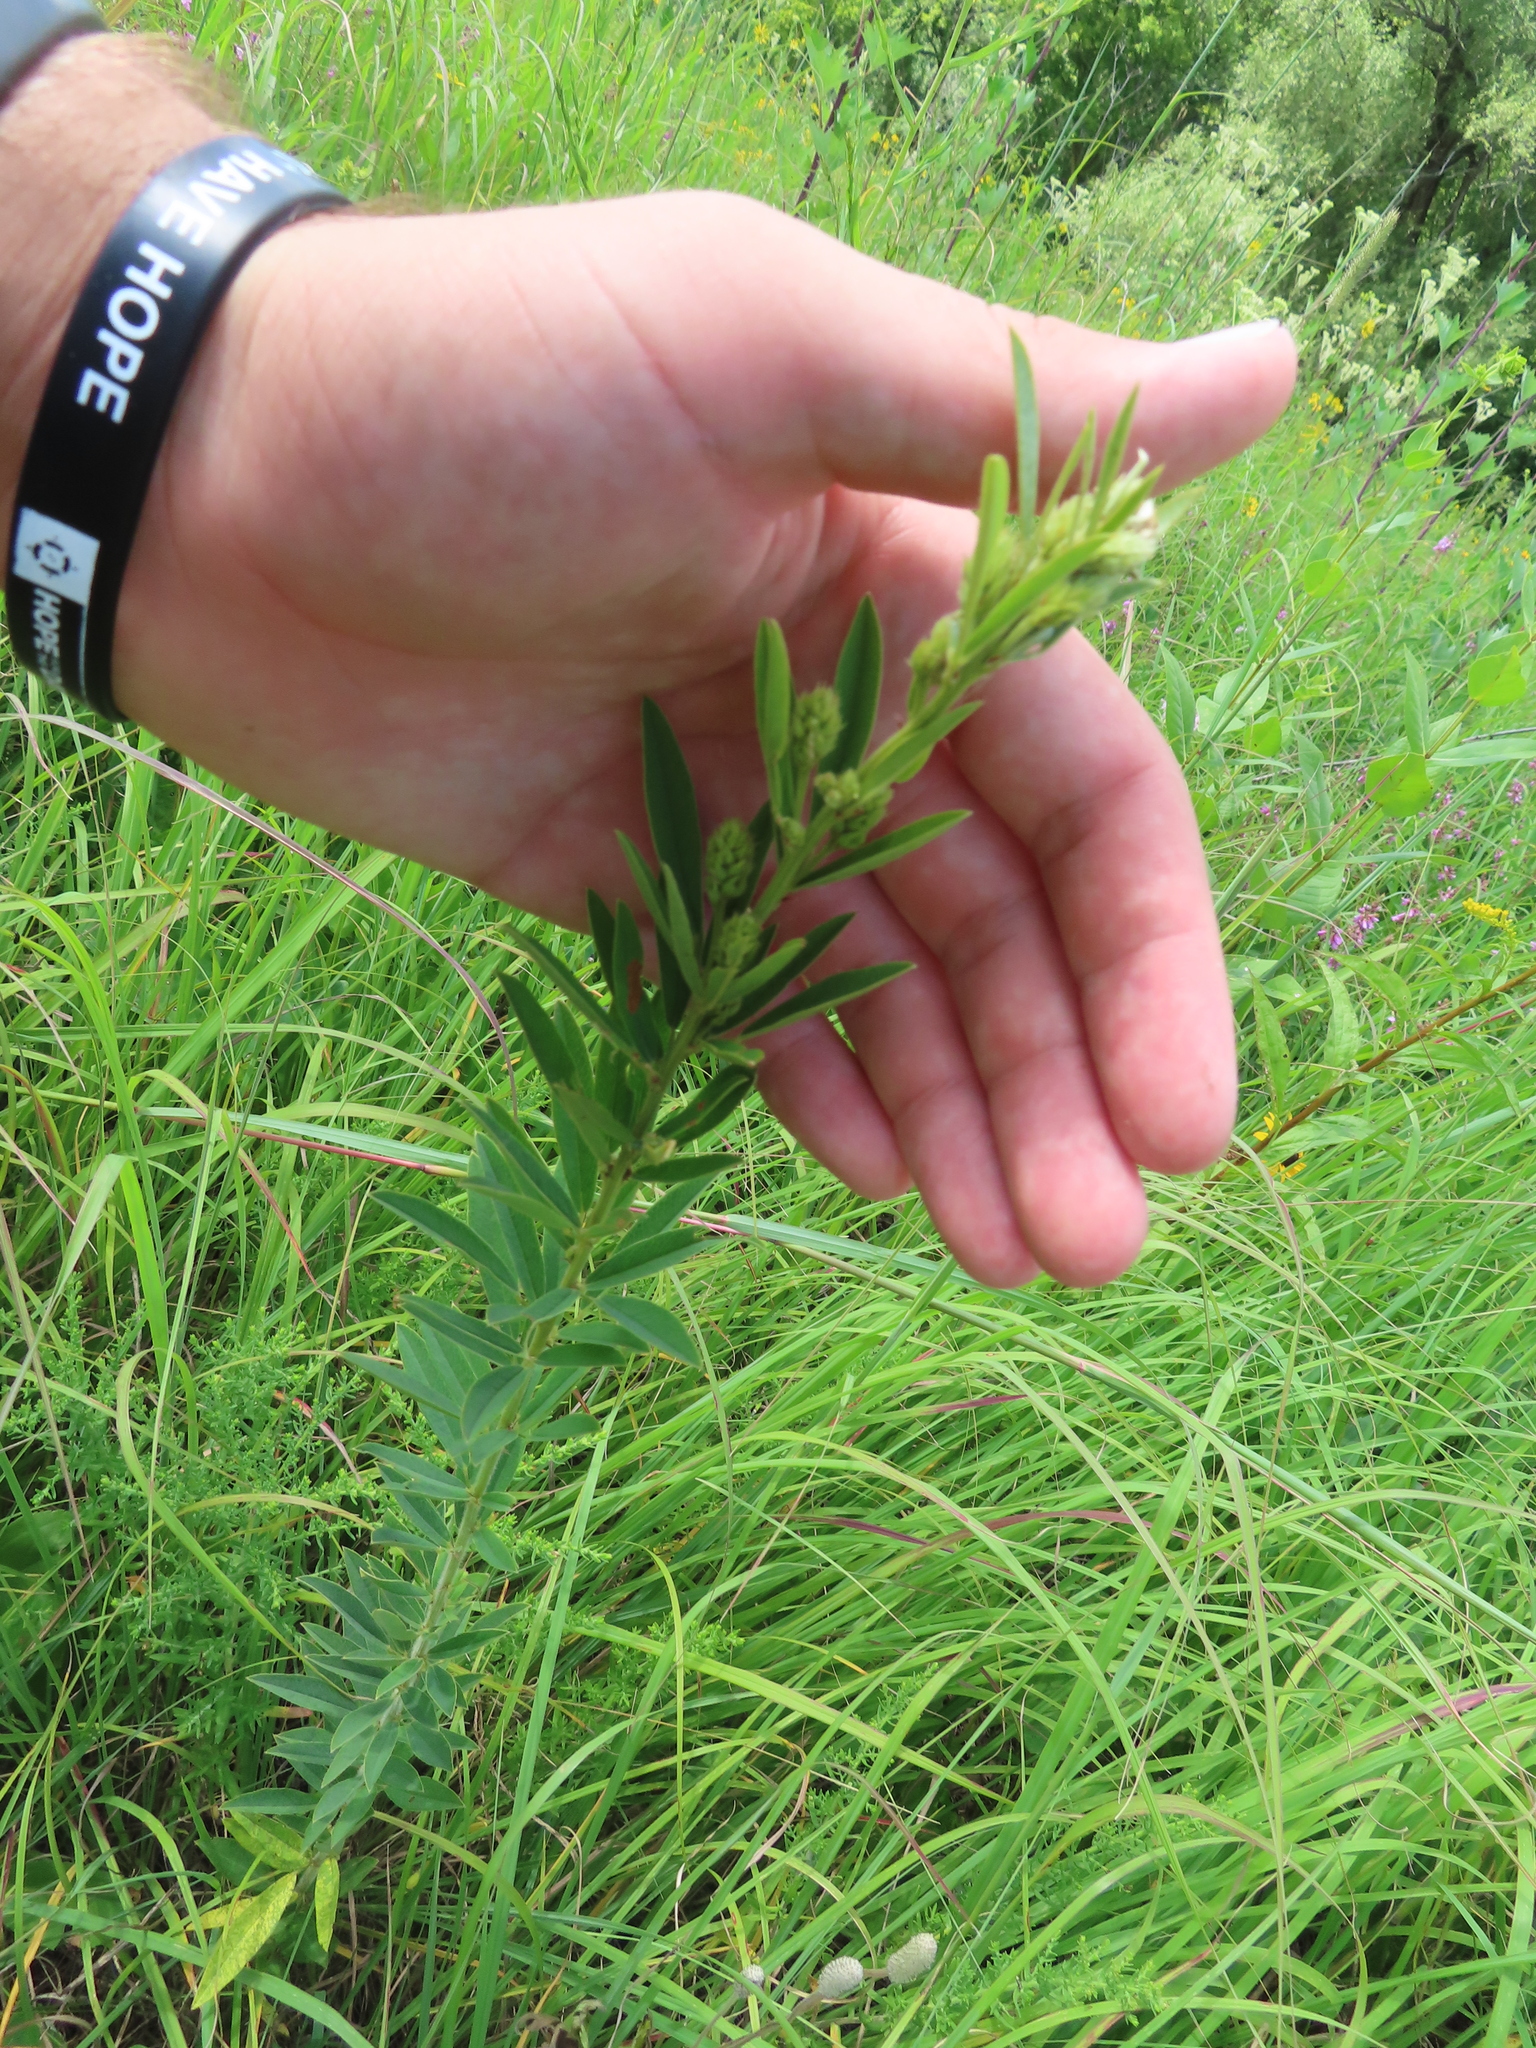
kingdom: Plantae
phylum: Tracheophyta
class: Magnoliopsida
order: Fabales
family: Fabaceae
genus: Lespedeza
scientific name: Lespedeza capitata
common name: Dusty clover
